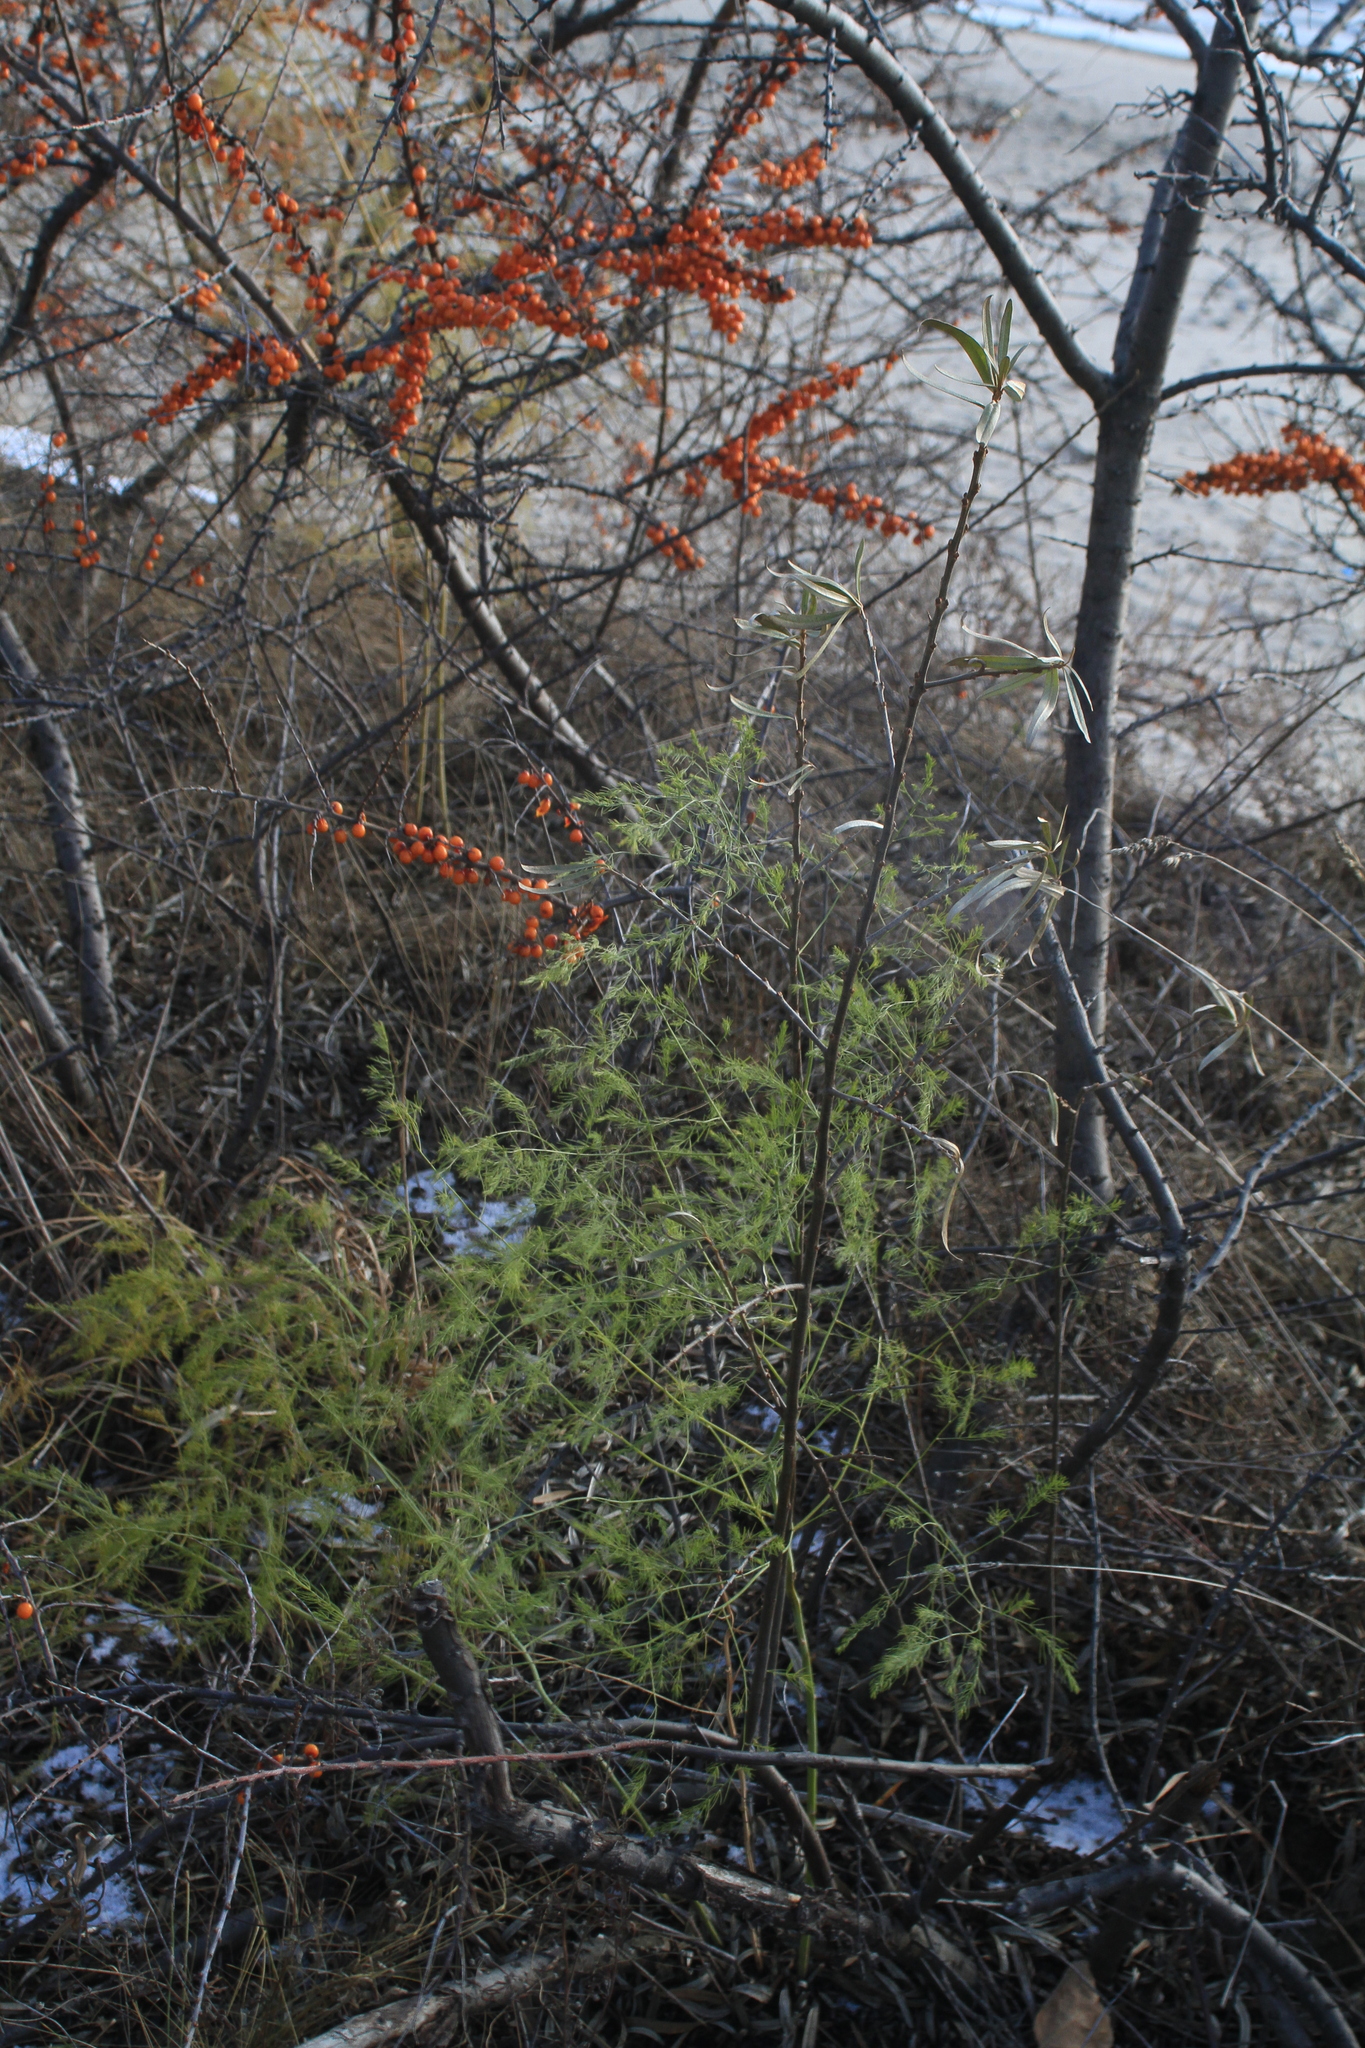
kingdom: Plantae
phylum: Tracheophyta
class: Liliopsida
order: Asparagales
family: Asparagaceae
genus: Asparagus
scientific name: Asparagus officinalis
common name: Garden asparagus
